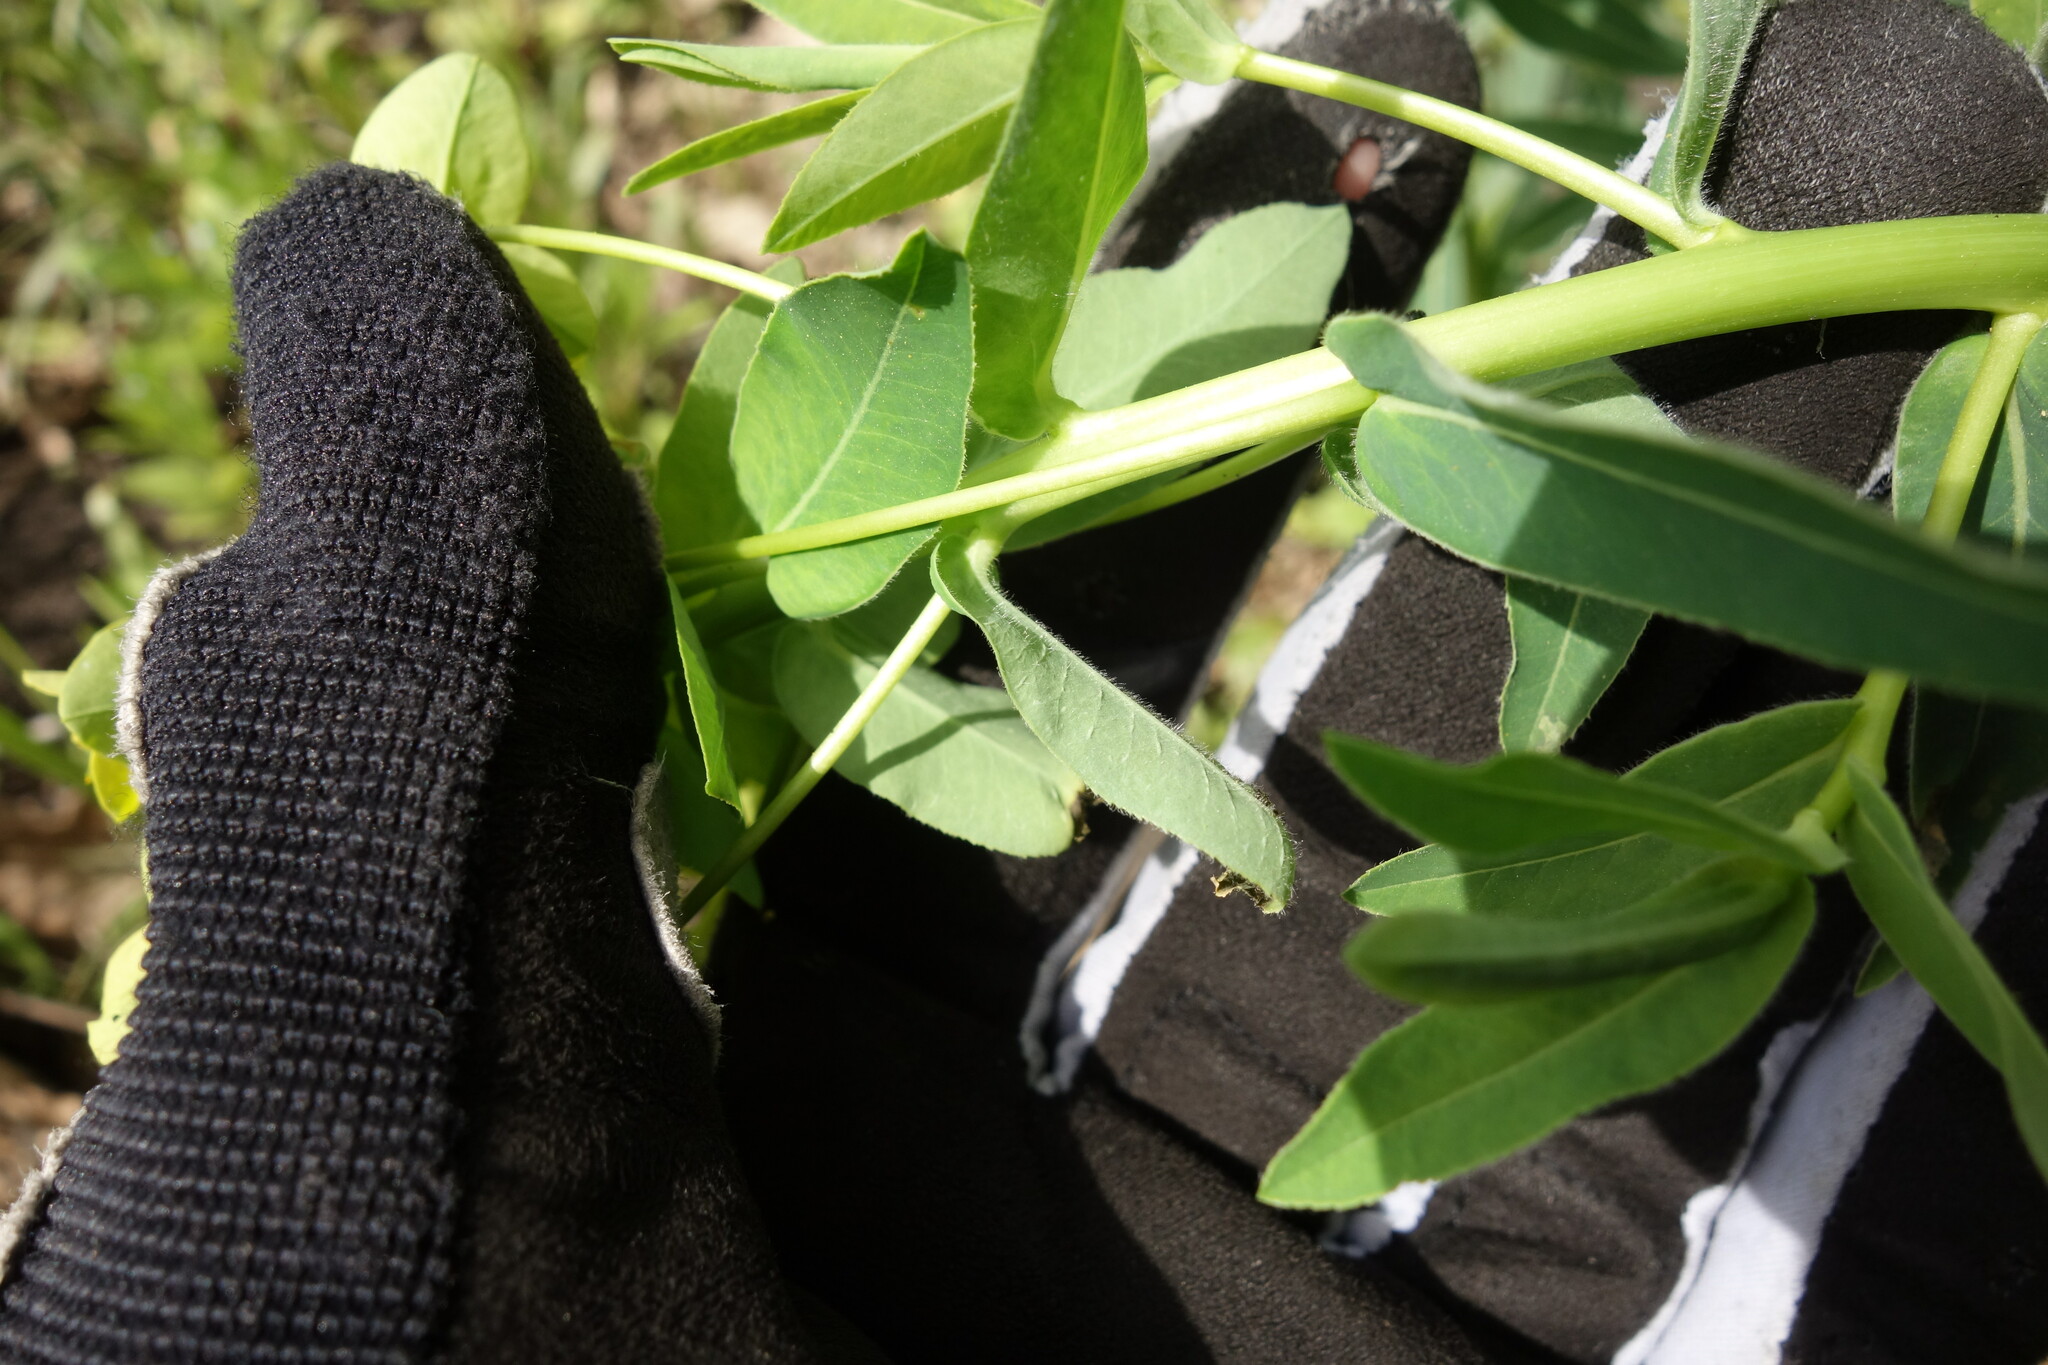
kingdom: Plantae
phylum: Tracheophyta
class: Magnoliopsida
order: Malpighiales
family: Euphorbiaceae
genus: Euphorbia
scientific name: Euphorbia semivillosa
